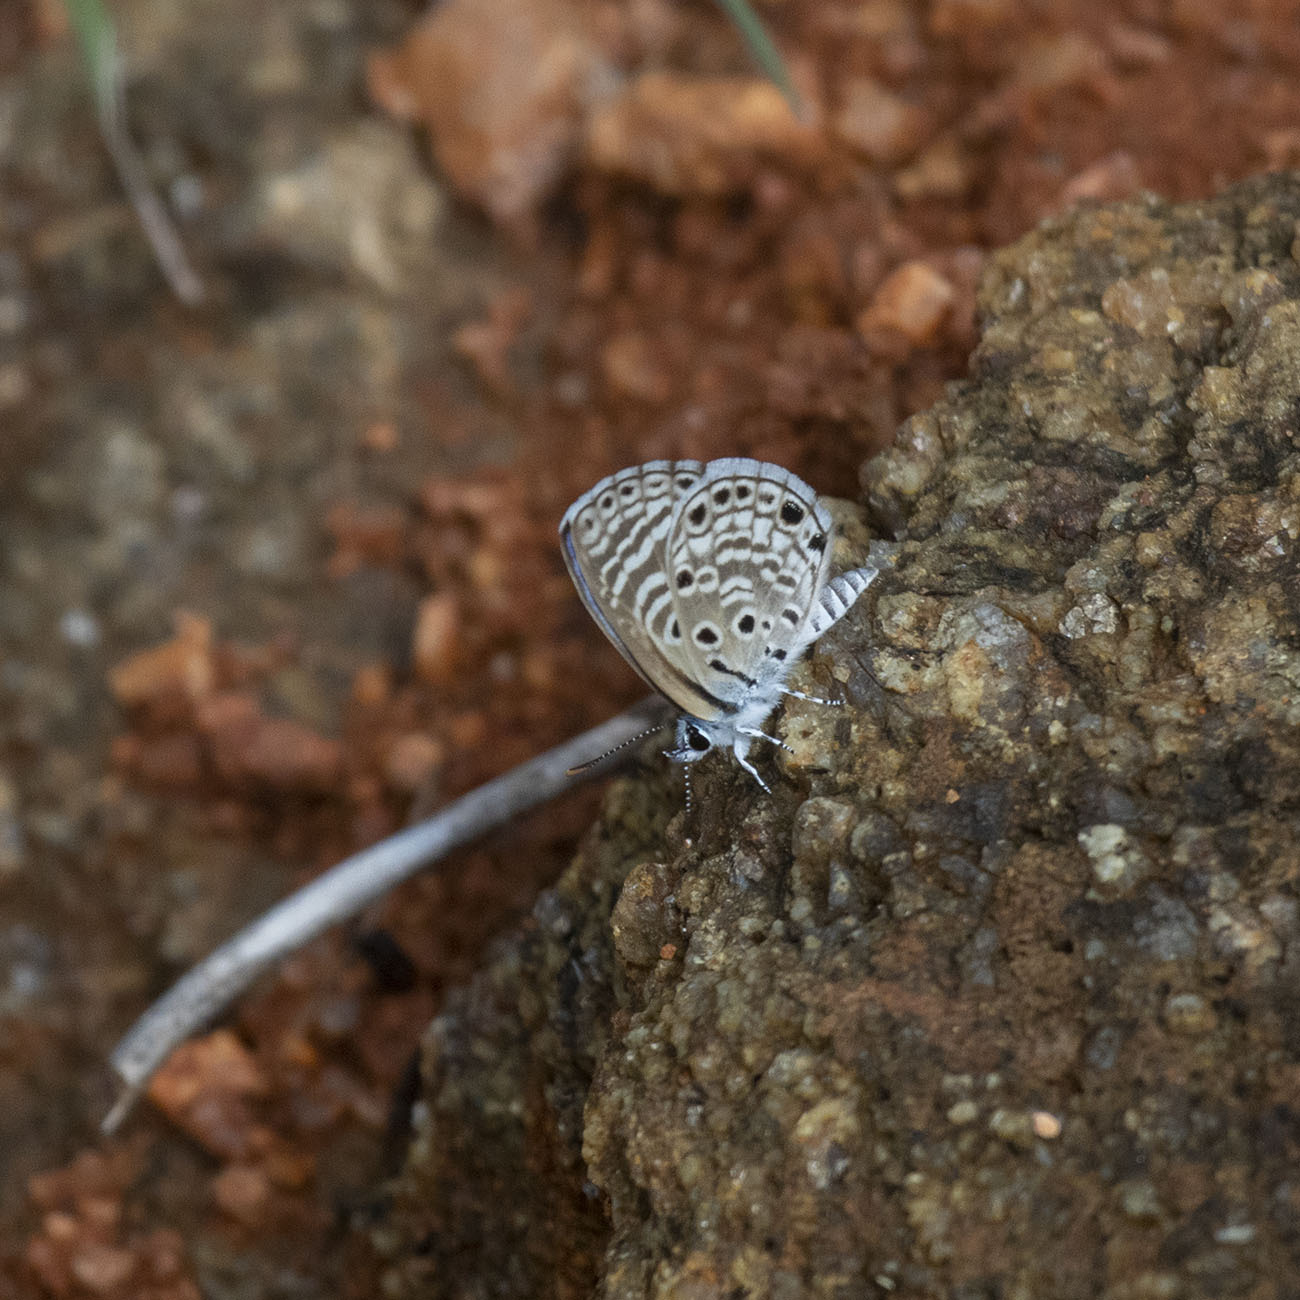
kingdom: Animalia
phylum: Arthropoda
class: Insecta
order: Lepidoptera
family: Lycaenidae
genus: Azanus
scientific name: Azanus jesous
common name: African babul blue
